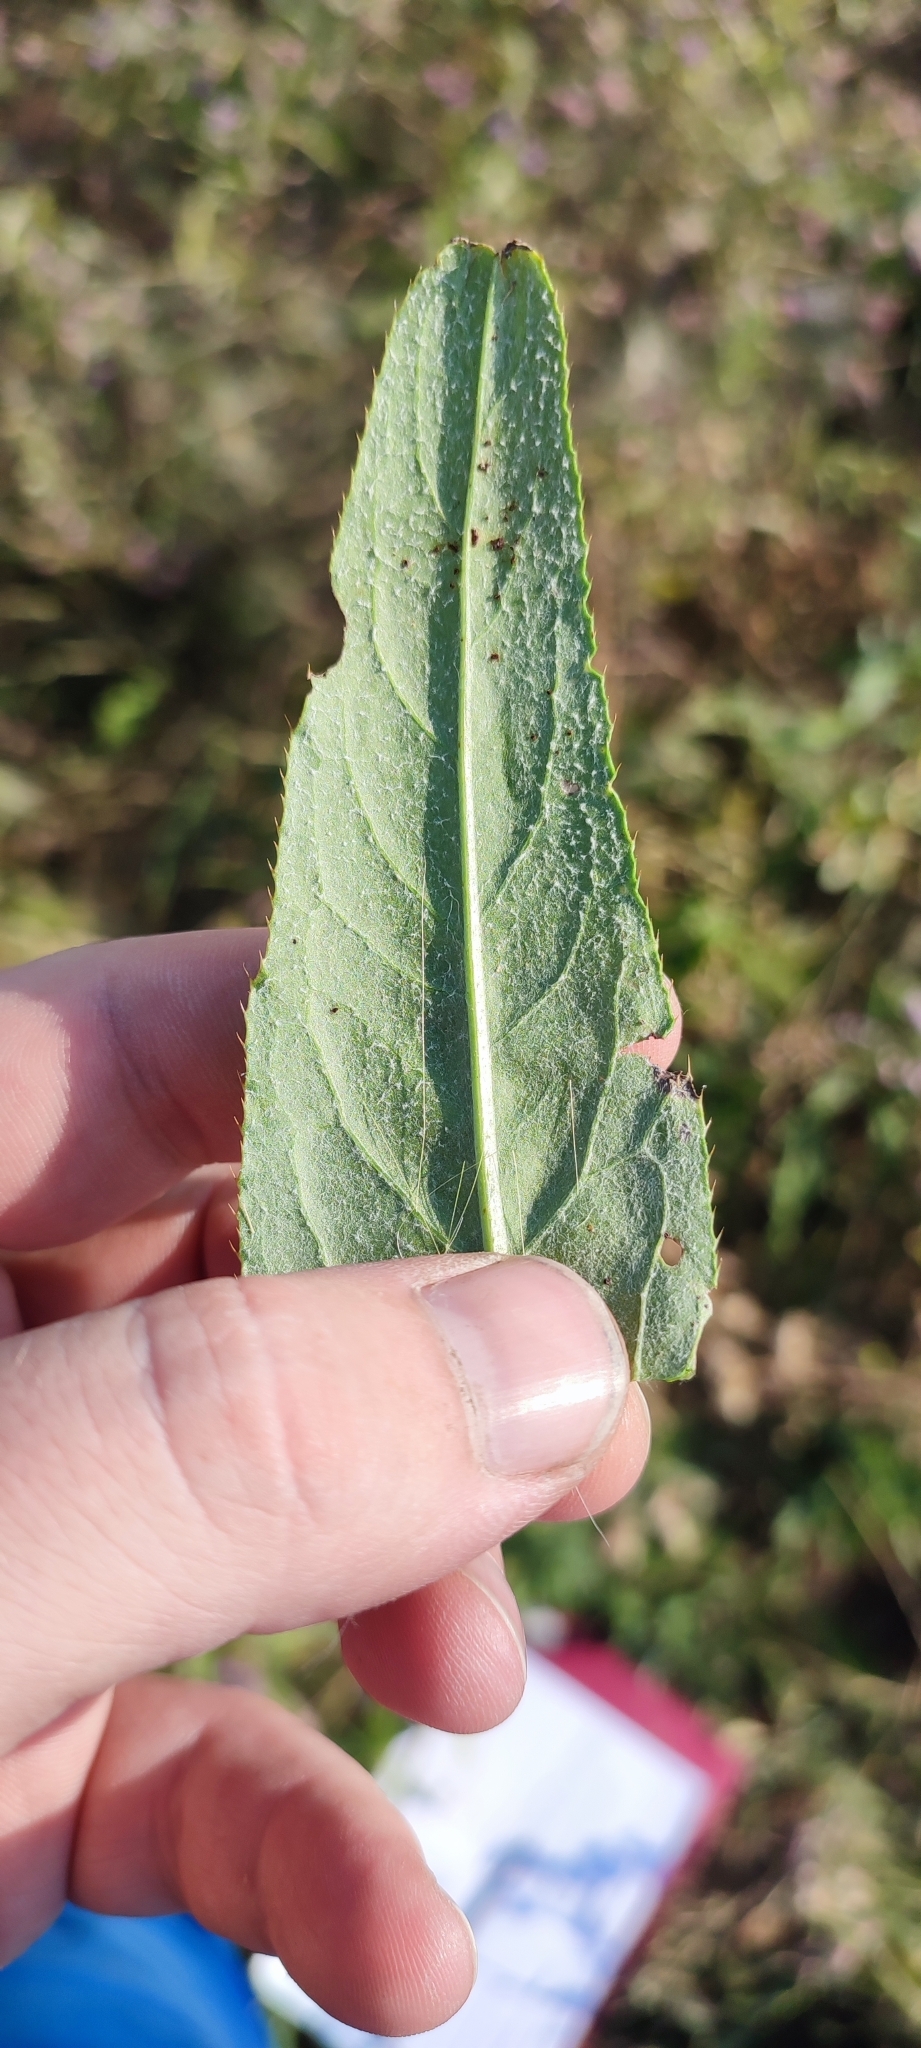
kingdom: Plantae
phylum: Tracheophyta
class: Magnoliopsida
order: Asterales
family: Asteraceae
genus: Cirsium
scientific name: Cirsium arvense
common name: Creeping thistle
